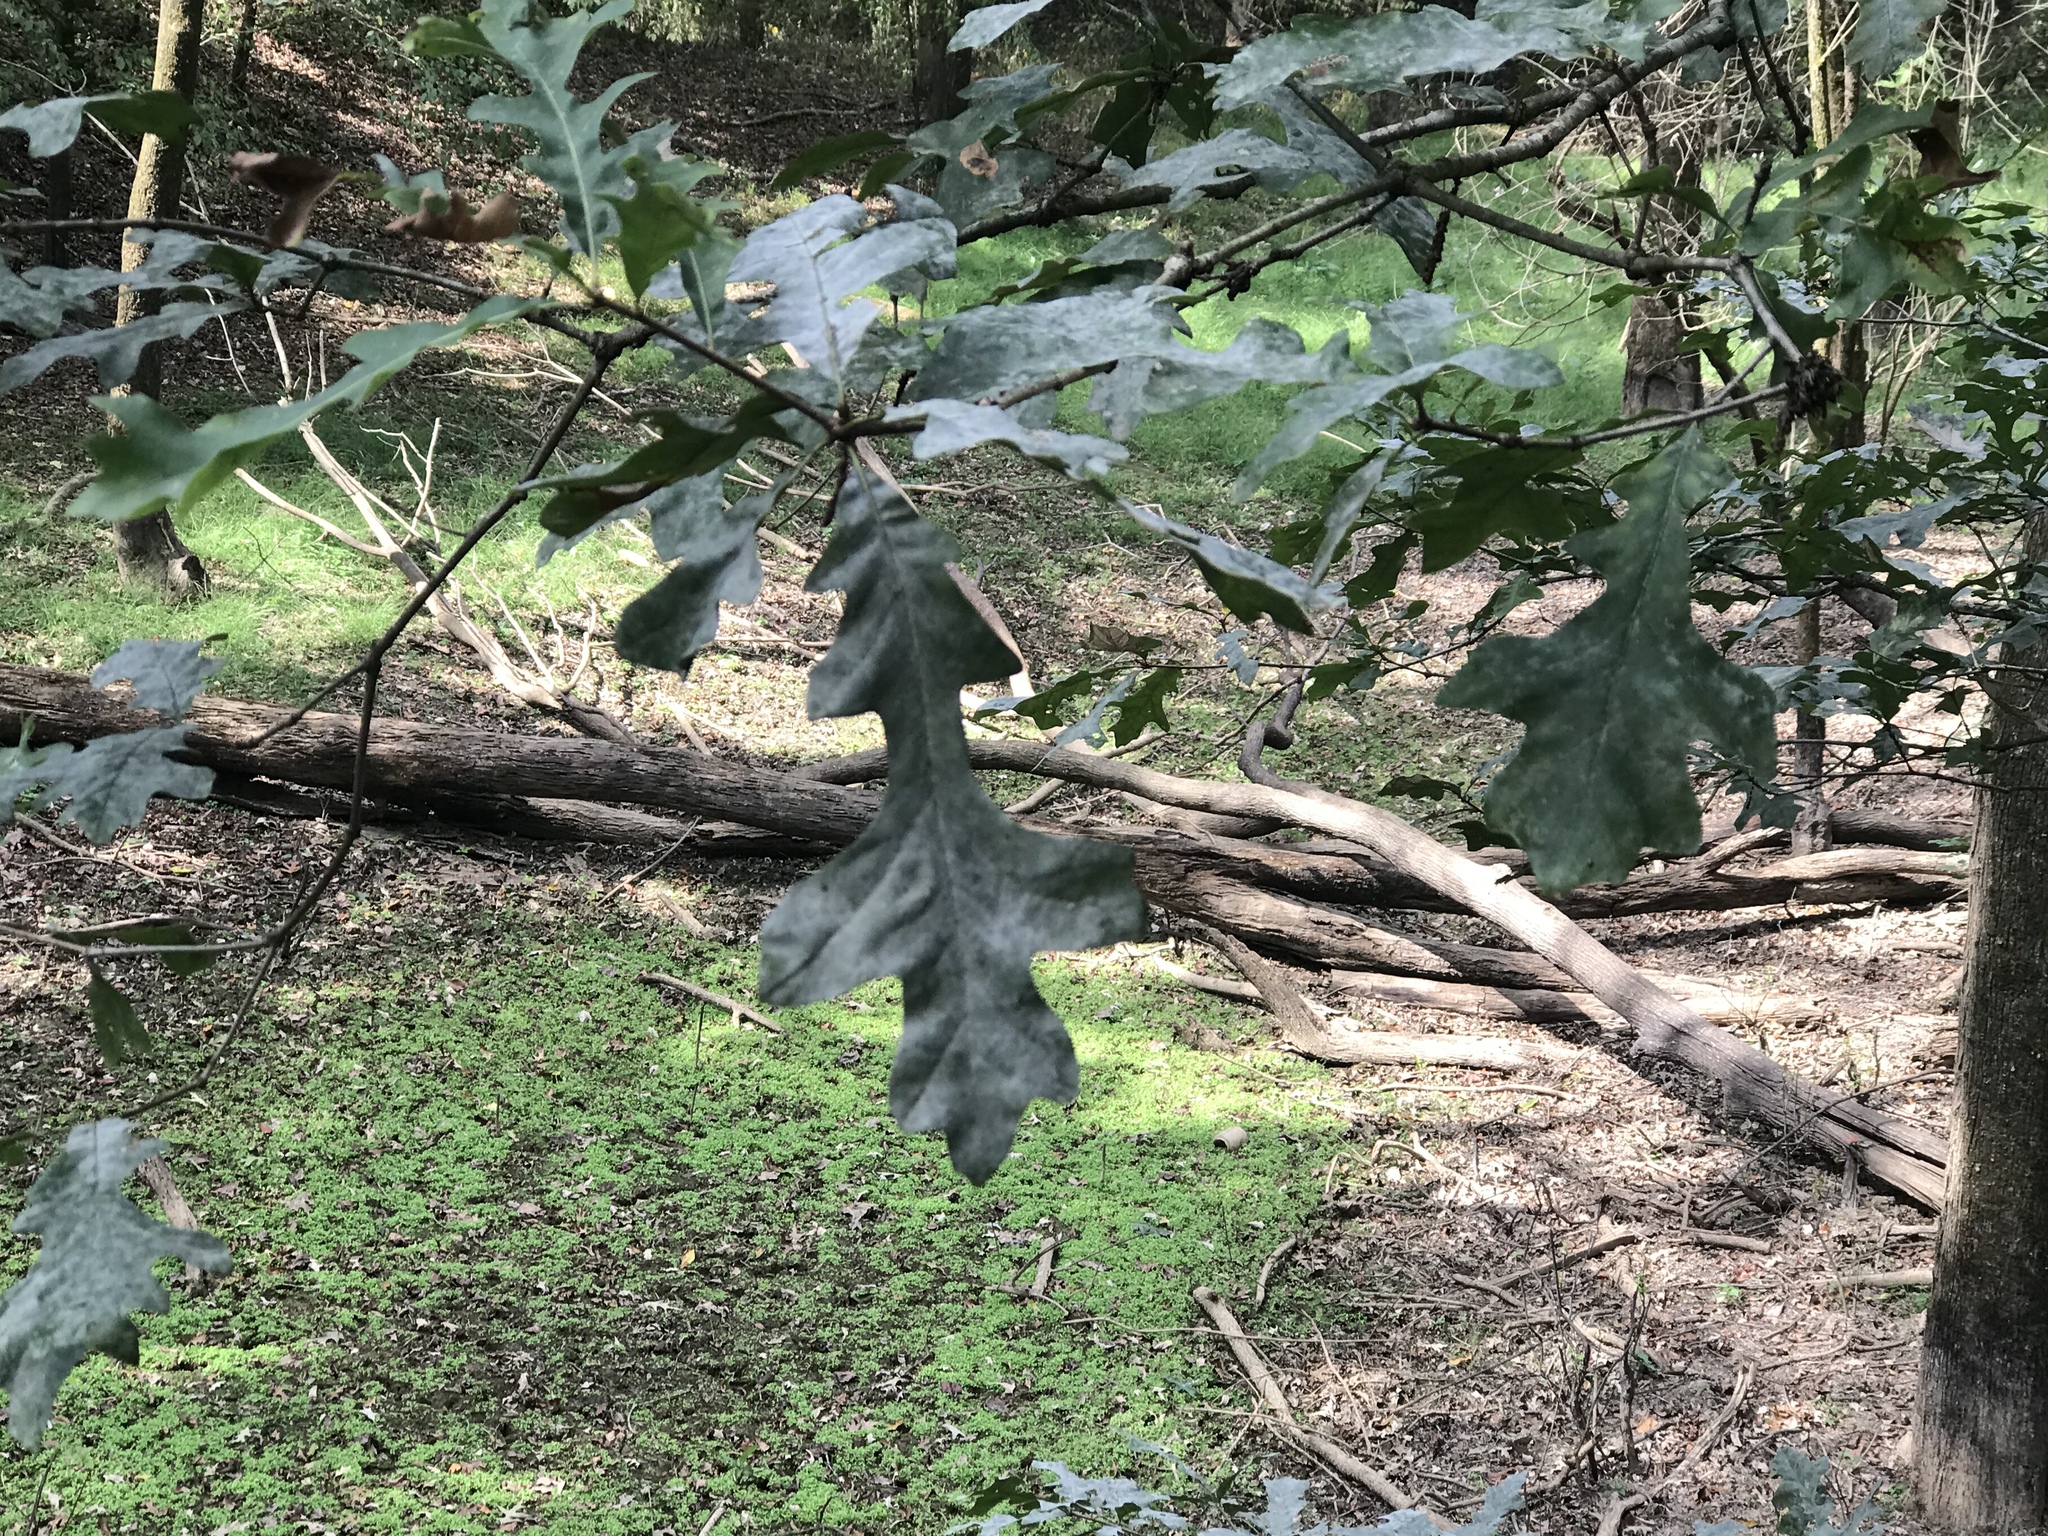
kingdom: Plantae
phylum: Tracheophyta
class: Magnoliopsida
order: Fagales
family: Fagaceae
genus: Quercus
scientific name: Quercus lyrata
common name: Overcup oak
